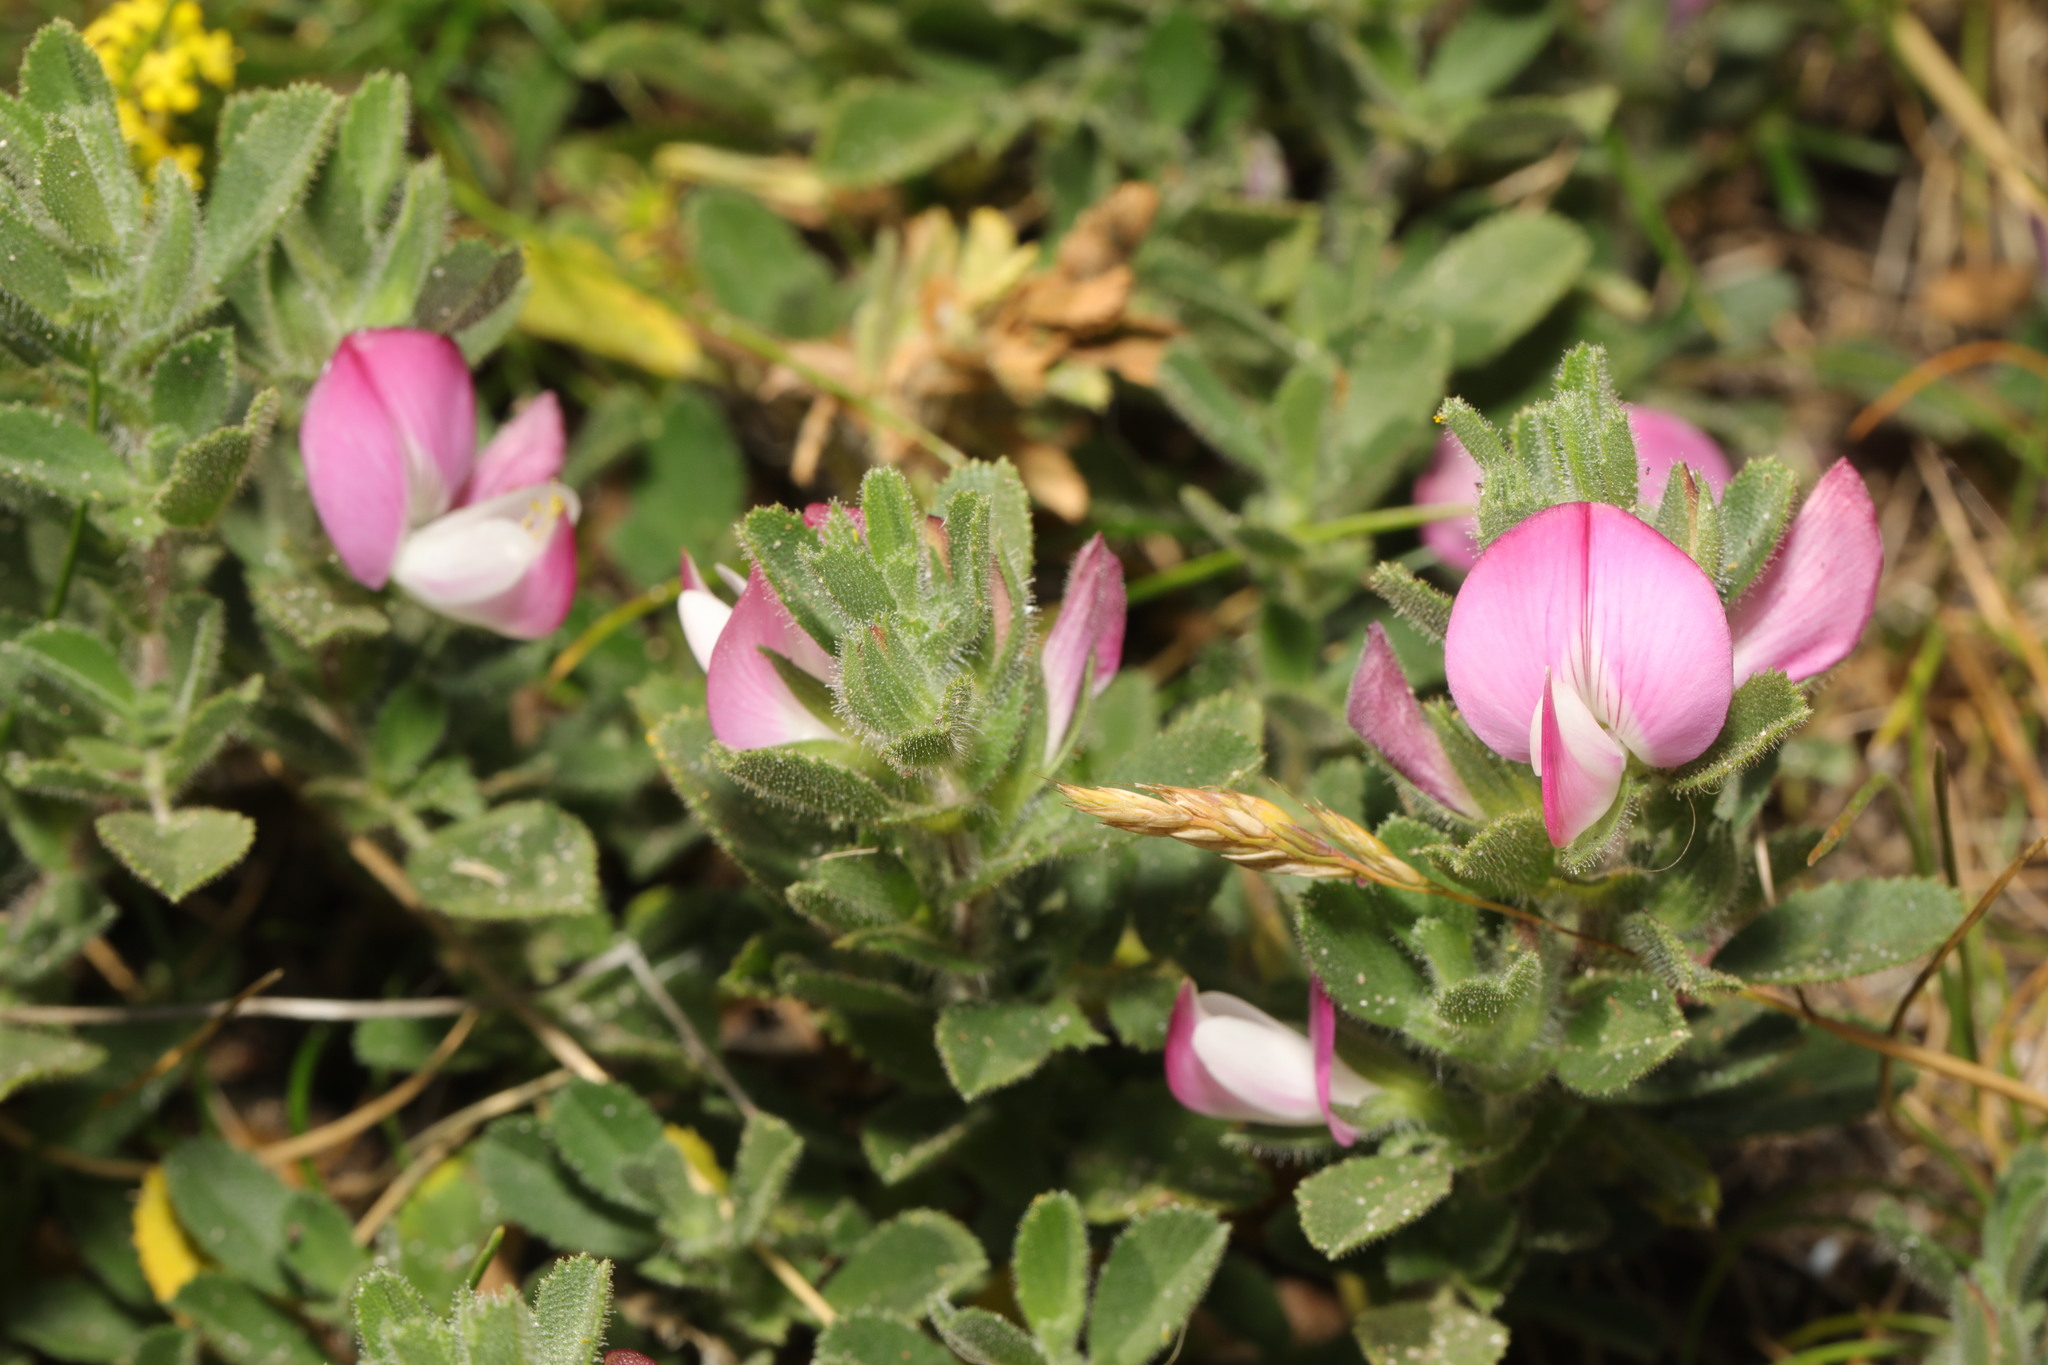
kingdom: Plantae
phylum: Tracheophyta
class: Magnoliopsida
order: Fabales
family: Fabaceae
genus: Ononis
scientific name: Ononis spinosa
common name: Spiny restharrow
